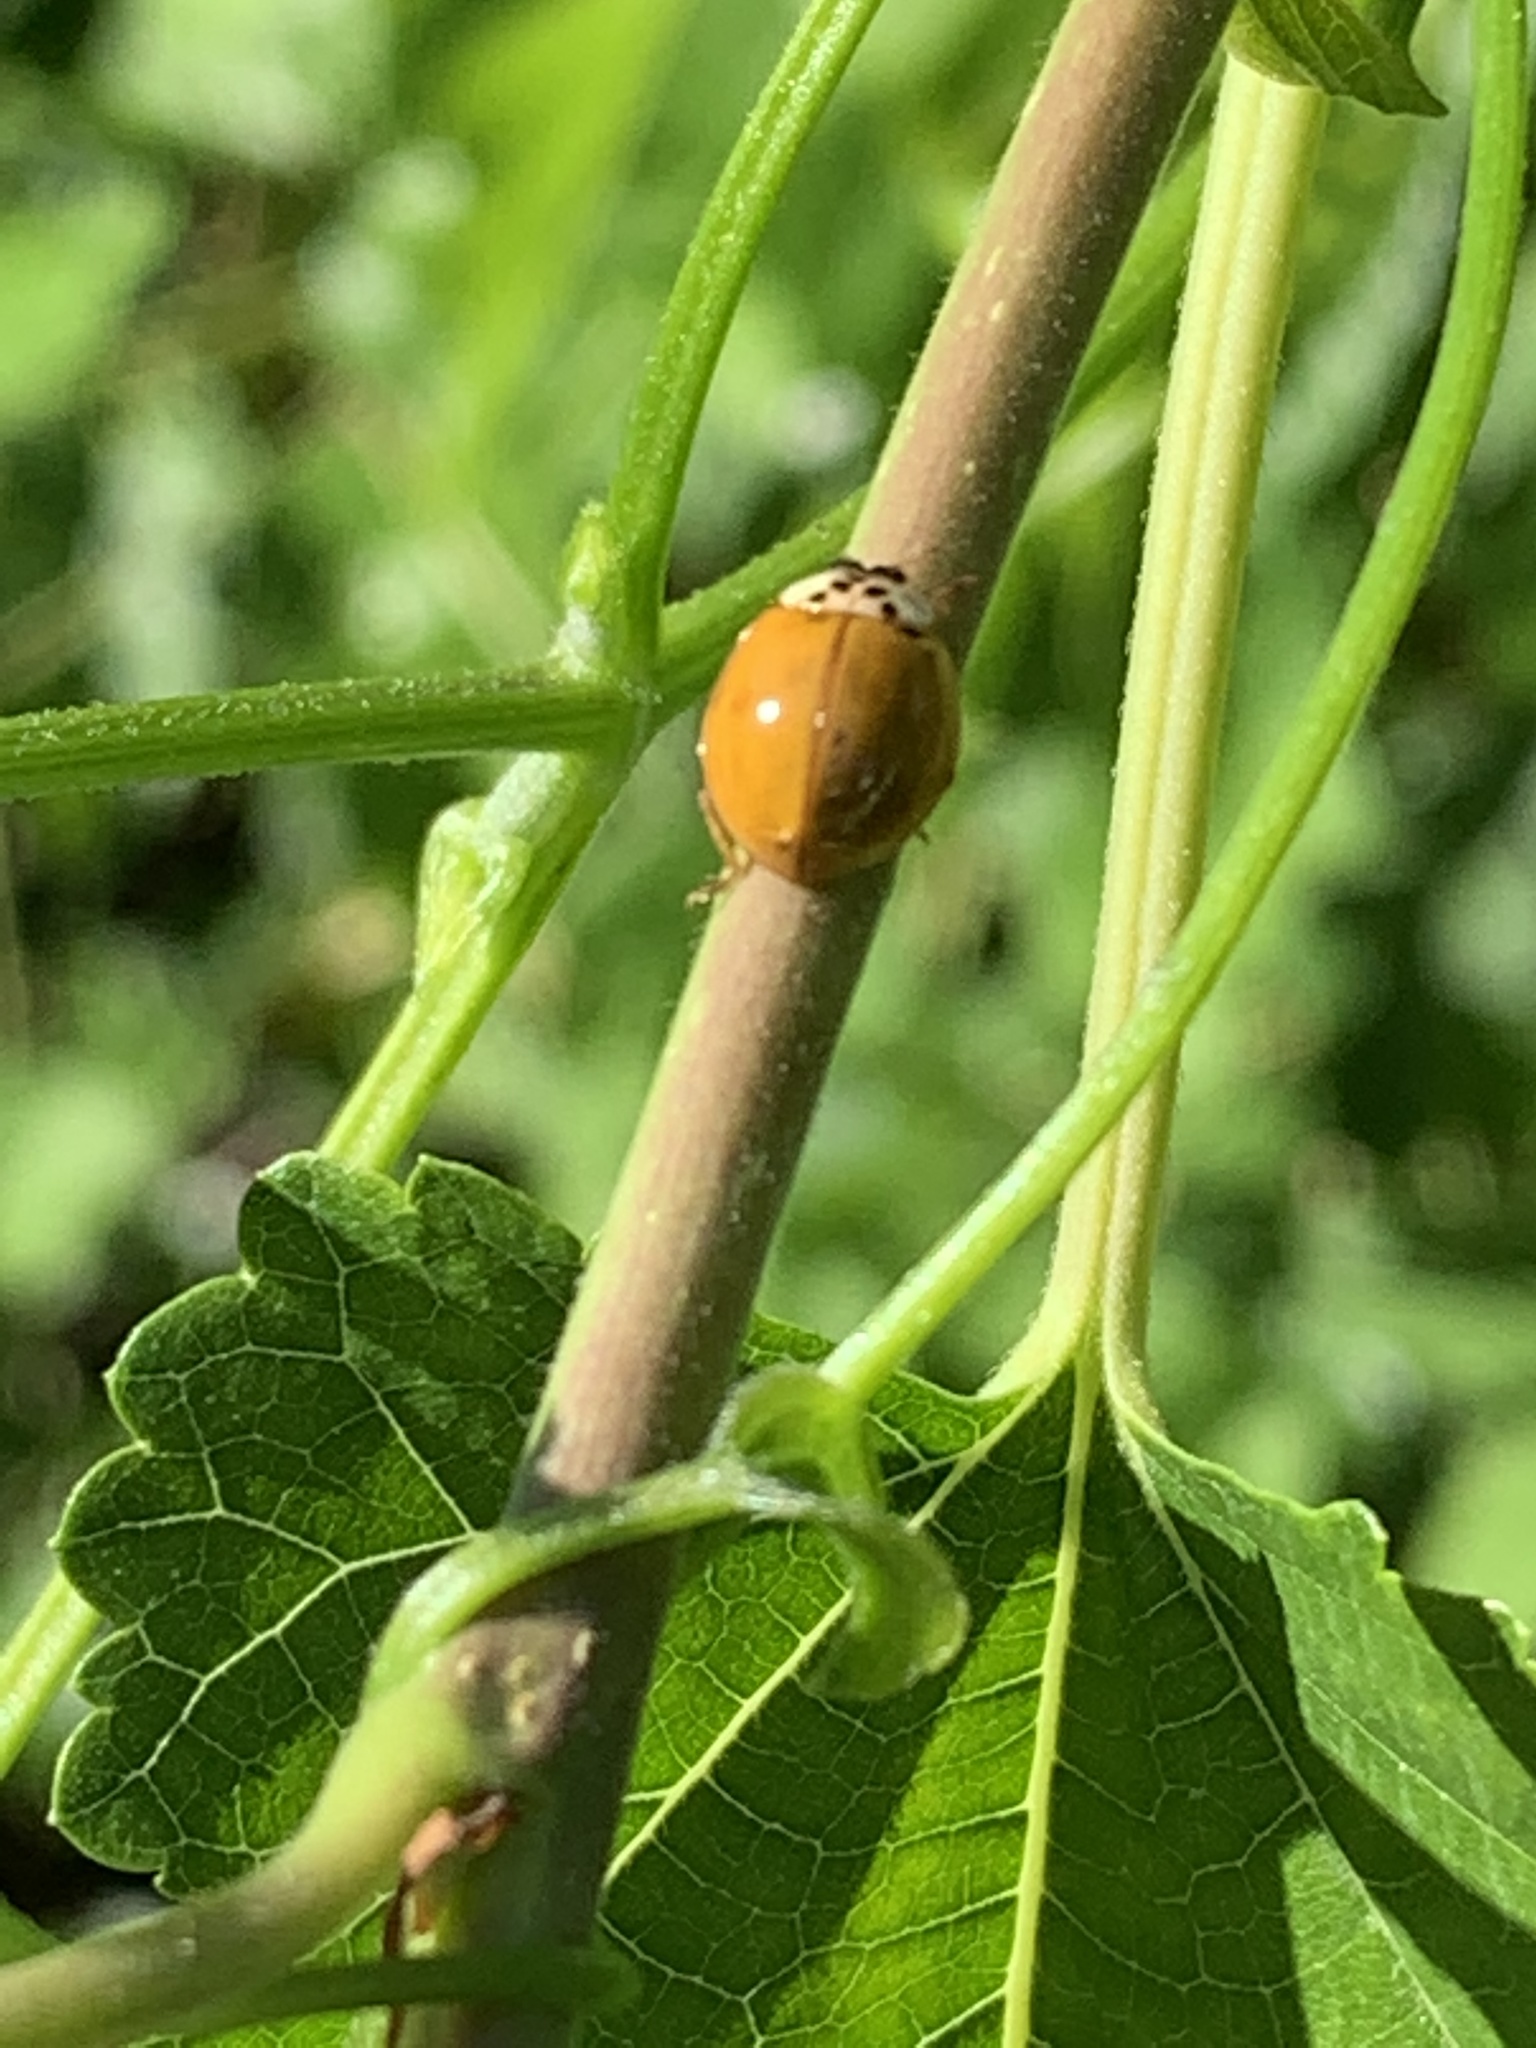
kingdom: Animalia
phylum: Arthropoda
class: Insecta
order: Coleoptera
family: Coccinellidae
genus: Harmonia
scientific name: Harmonia axyridis
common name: Harlequin ladybird
